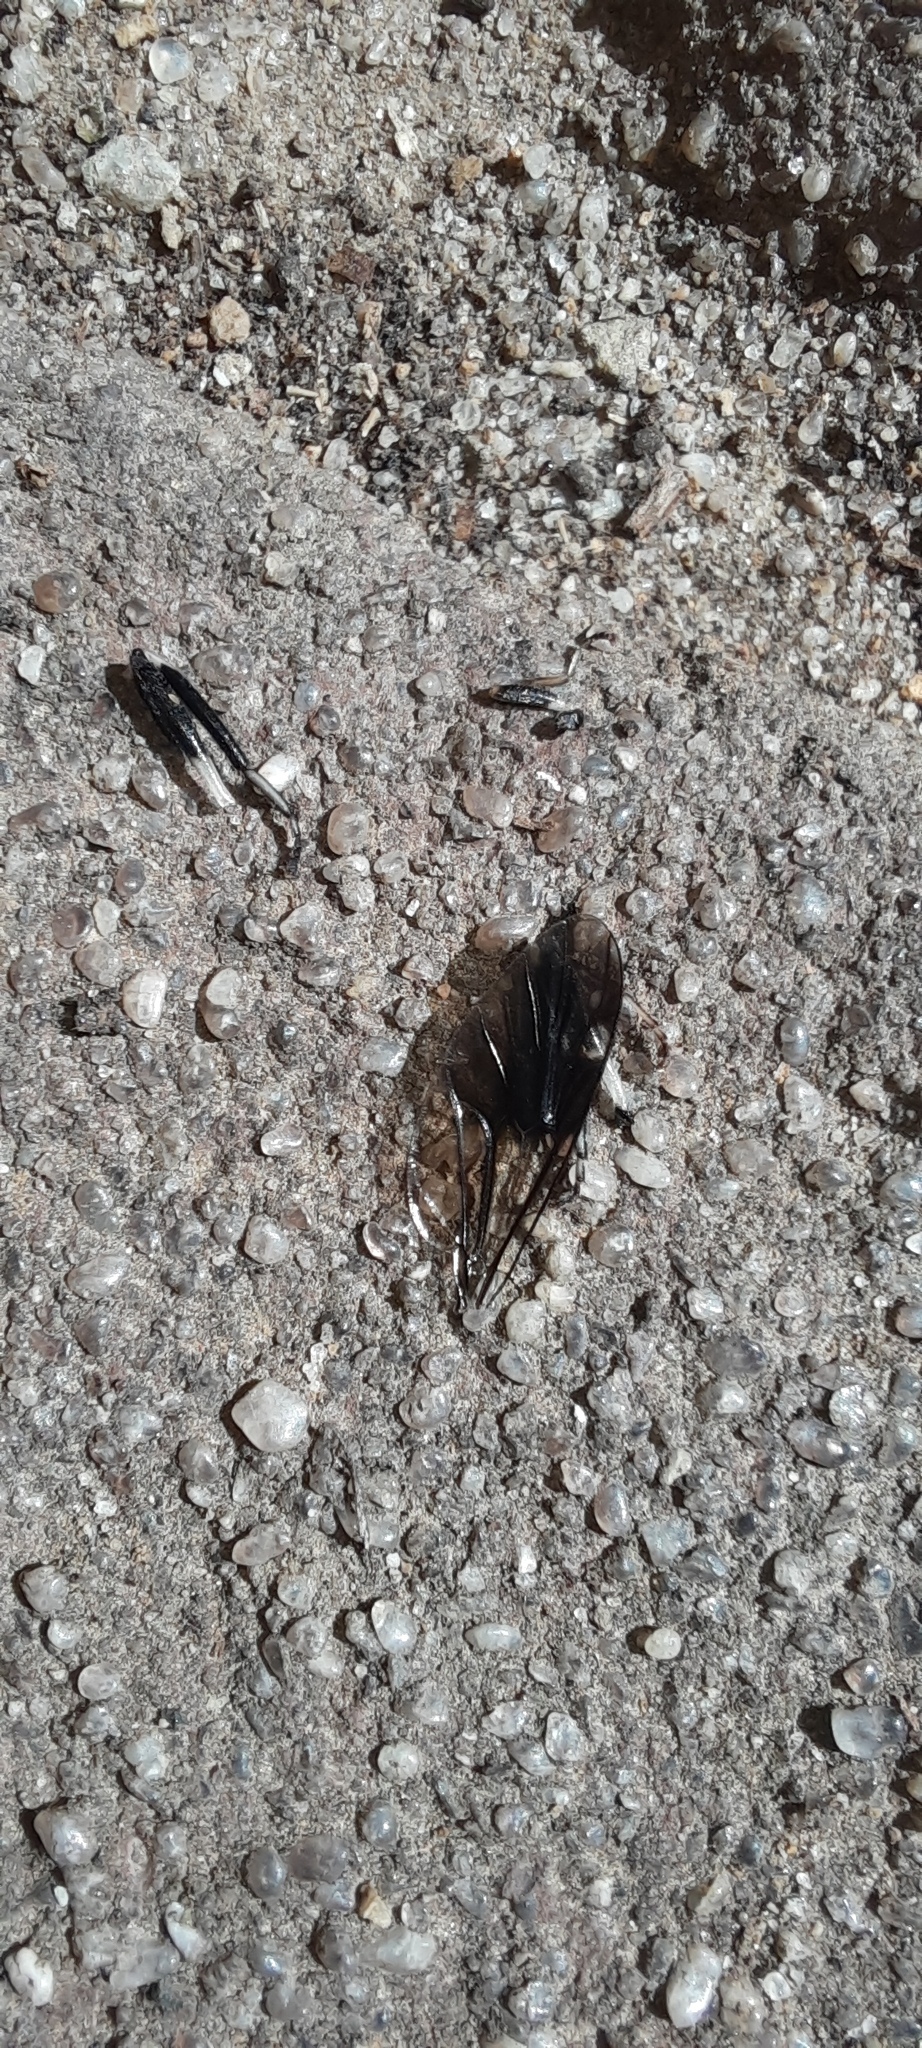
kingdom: Animalia
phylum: Arthropoda
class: Insecta
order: Hymenoptera
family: Vespidae
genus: Vespula
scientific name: Vespula germanica
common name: German wasp
